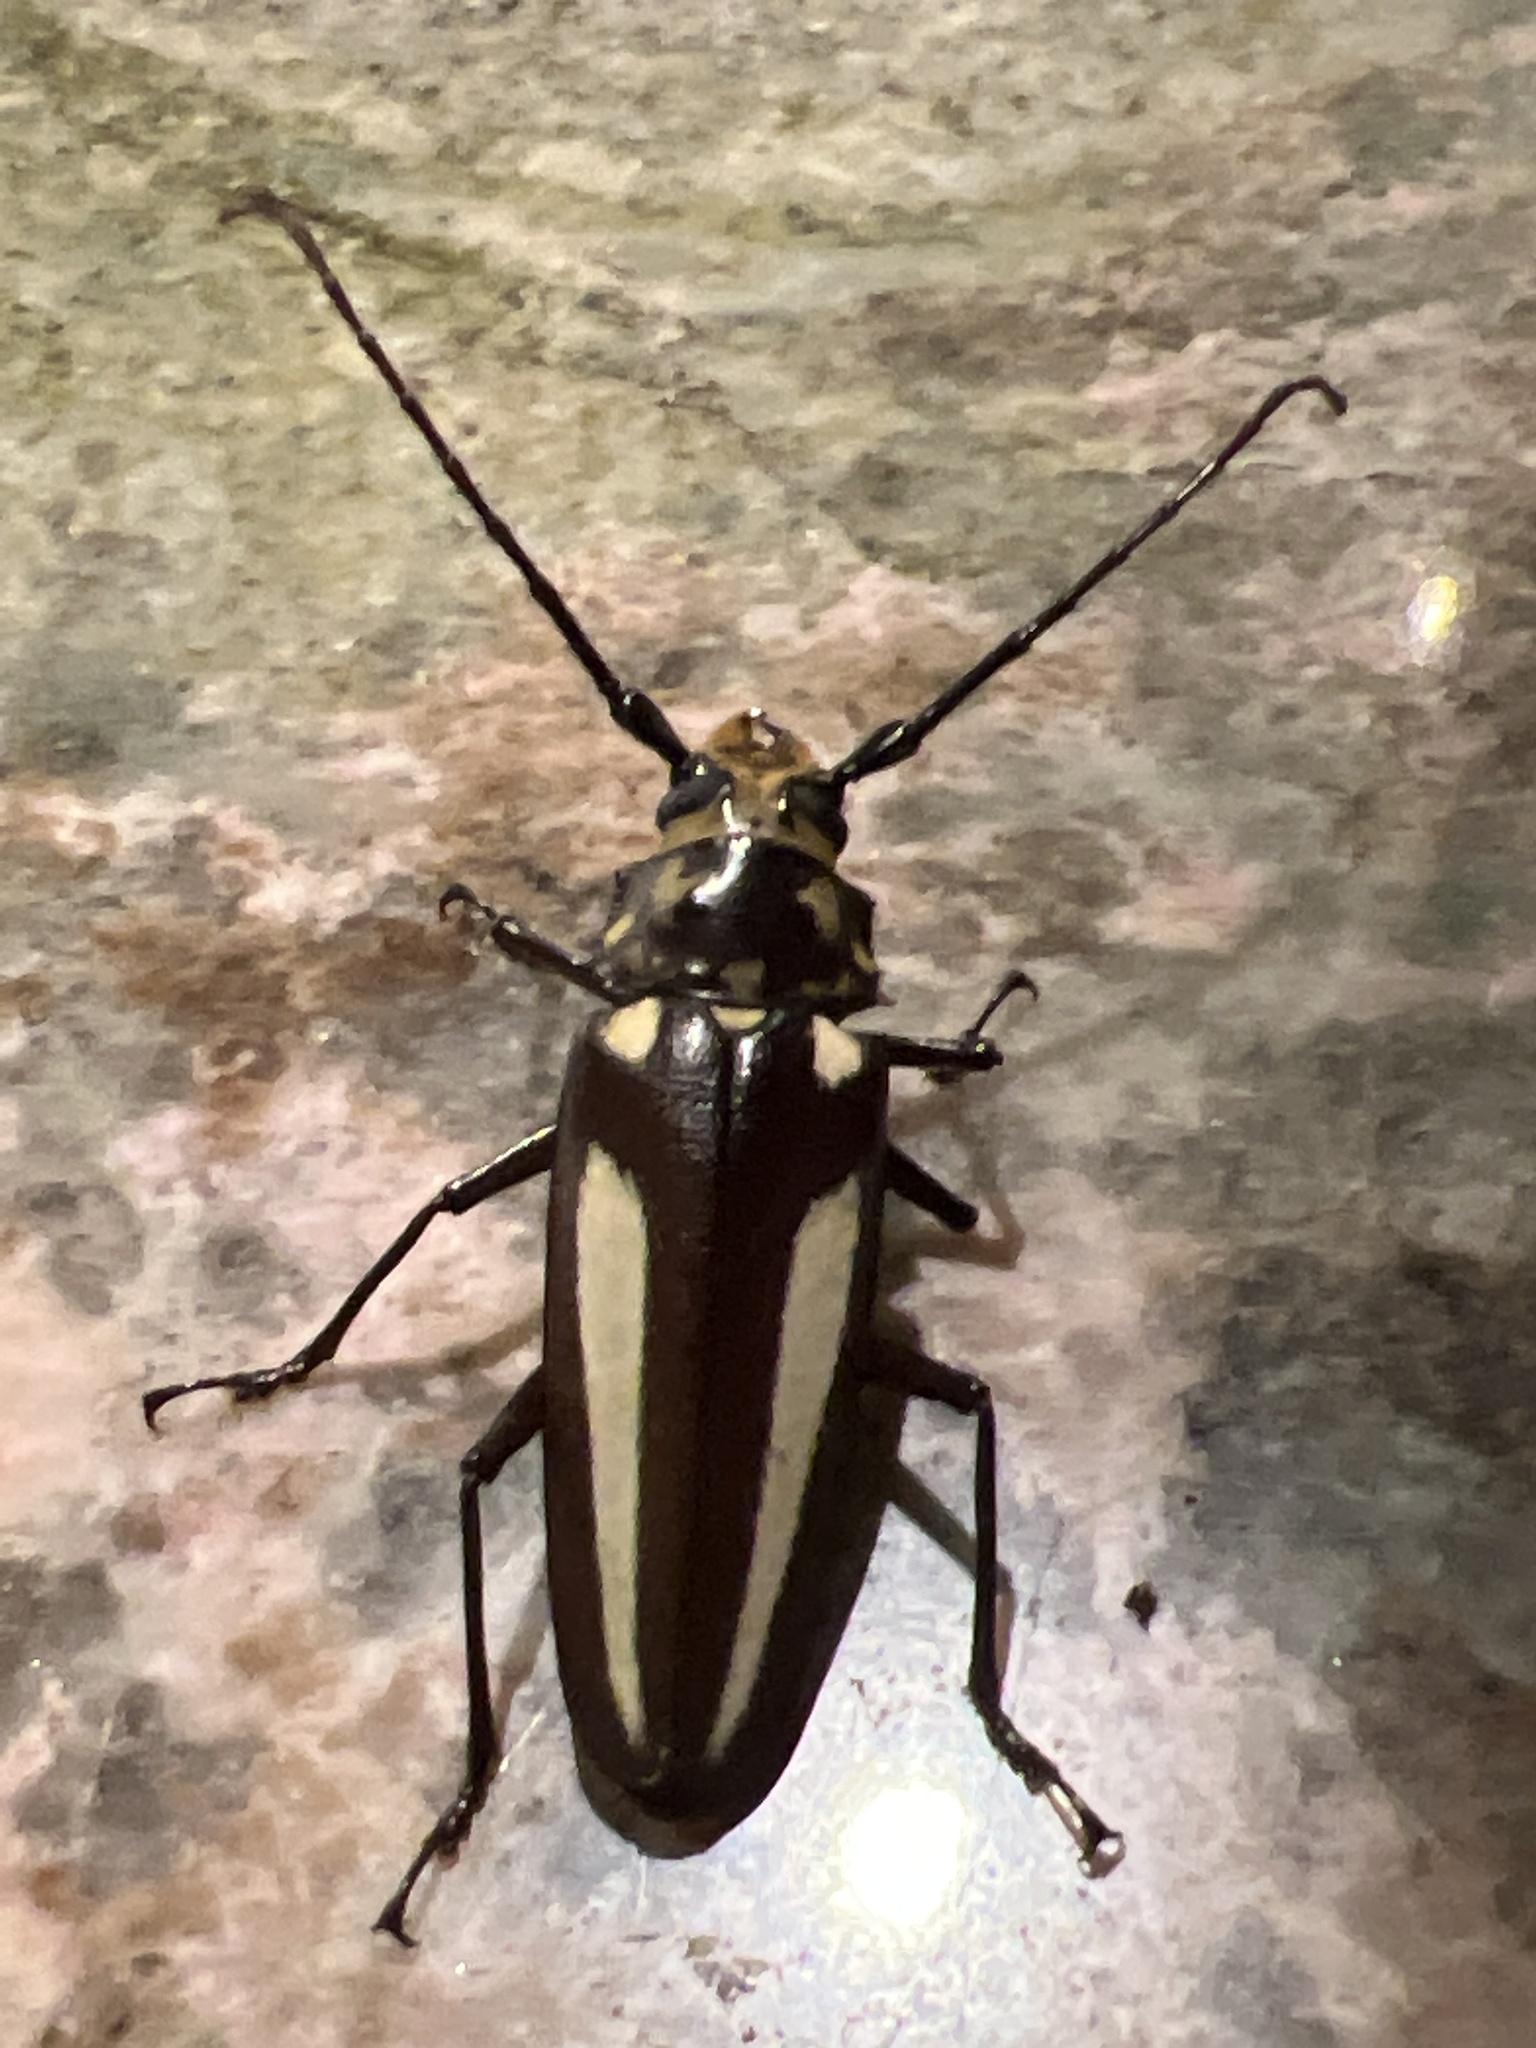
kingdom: Animalia
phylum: Arthropoda
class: Insecta
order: Coleoptera
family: Cerambycidae
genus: Callipogon
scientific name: Callipogon lemoinei
